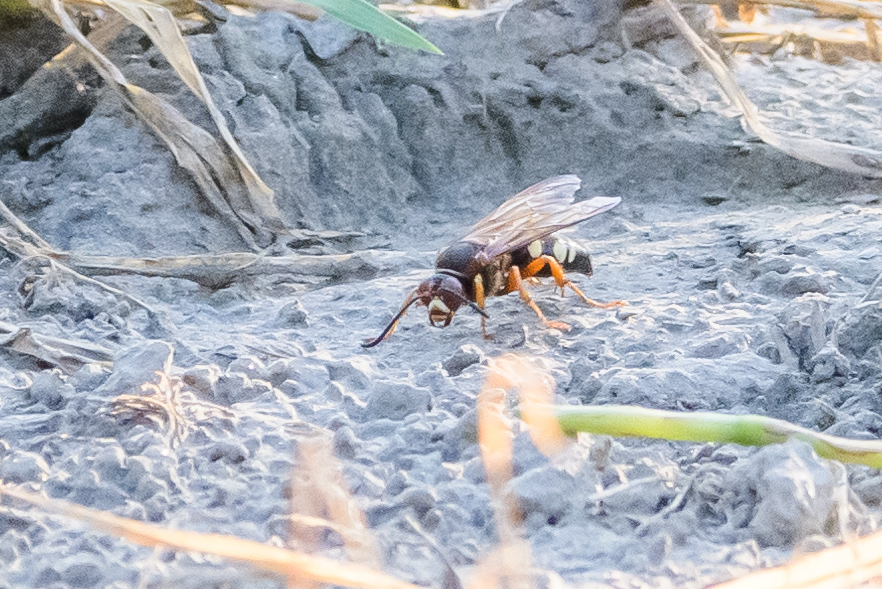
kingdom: Animalia
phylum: Arthropoda
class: Insecta
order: Hymenoptera
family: Crabronidae
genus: Sphecius
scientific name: Sphecius speciosus
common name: Cicada killer
